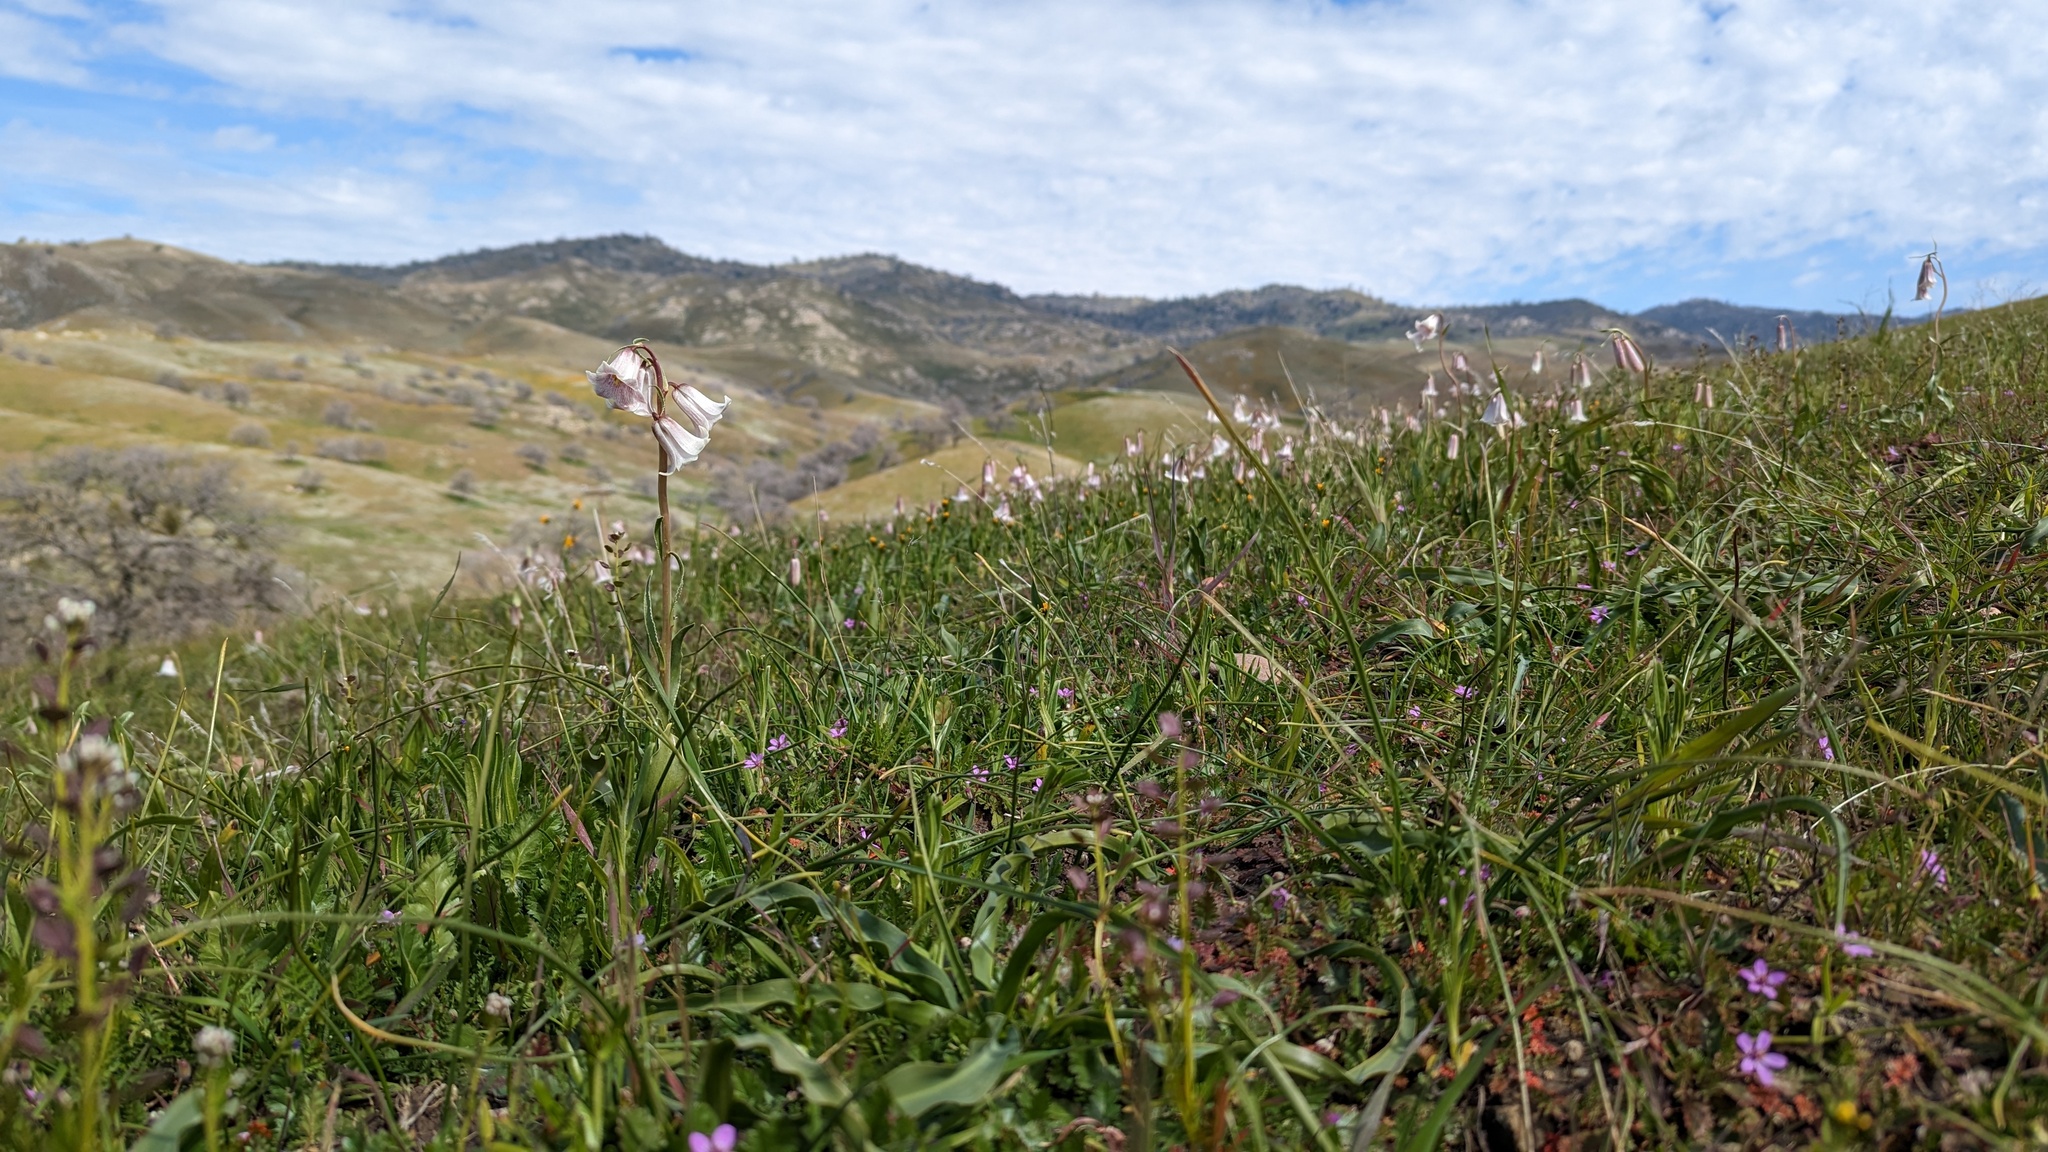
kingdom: Plantae
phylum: Tracheophyta
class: Liliopsida
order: Liliales
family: Liliaceae
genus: Fritillaria
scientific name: Fritillaria striata
